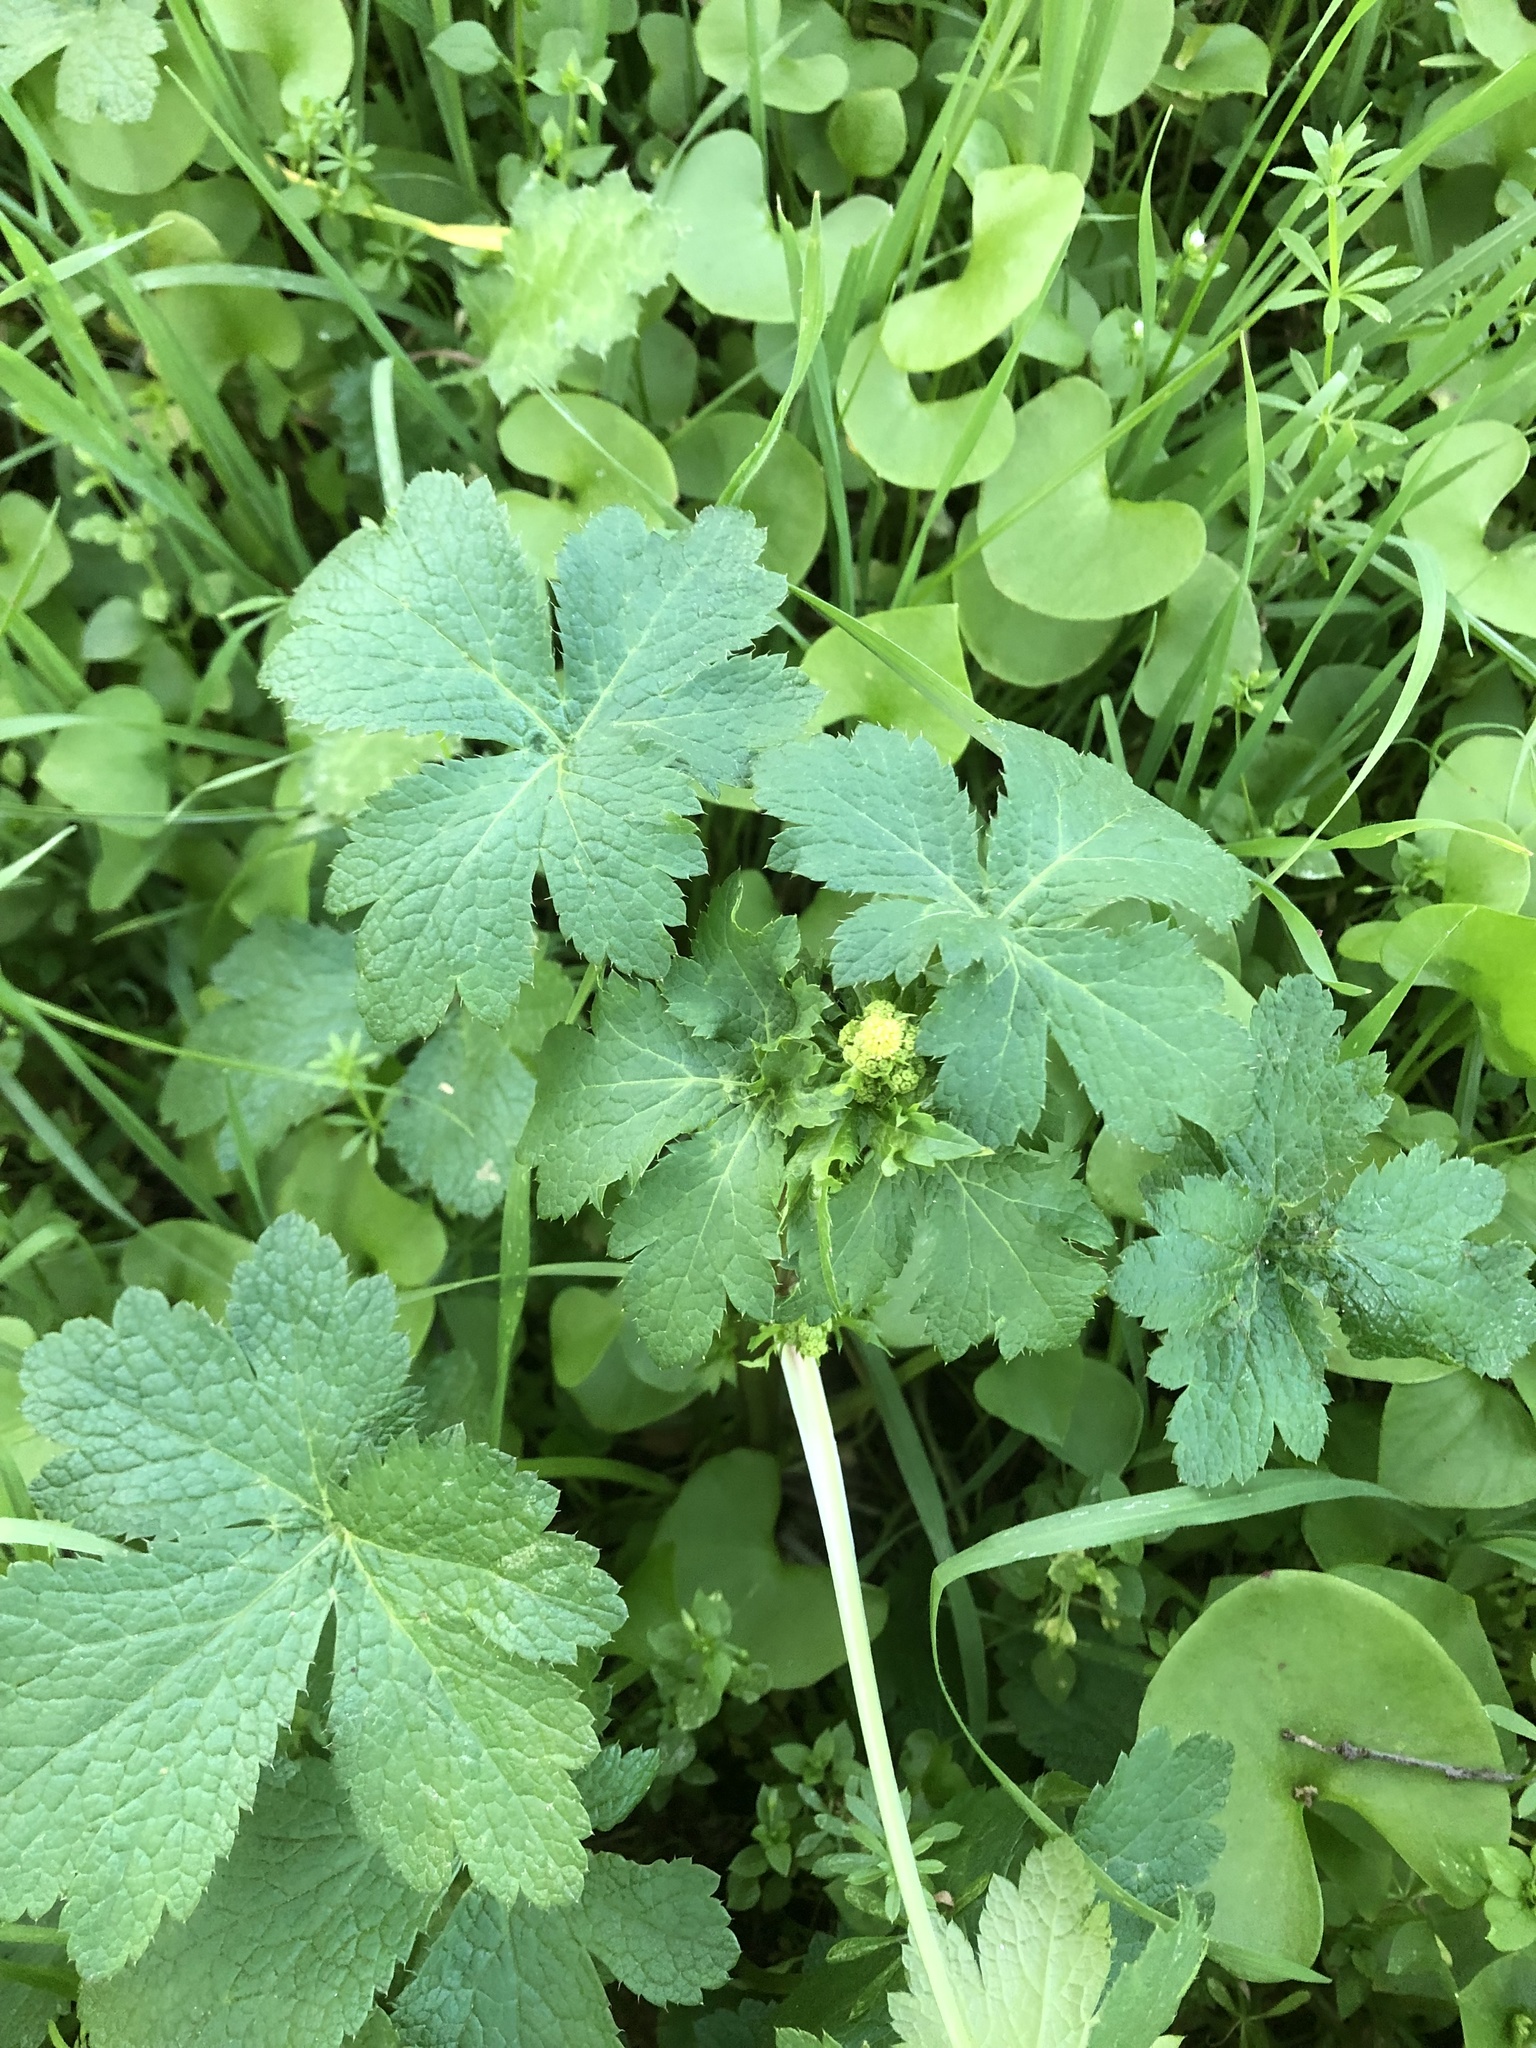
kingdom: Plantae
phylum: Tracheophyta
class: Magnoliopsida
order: Apiales
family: Apiaceae
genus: Sanicula
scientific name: Sanicula crassicaulis
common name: Western snakeroot
